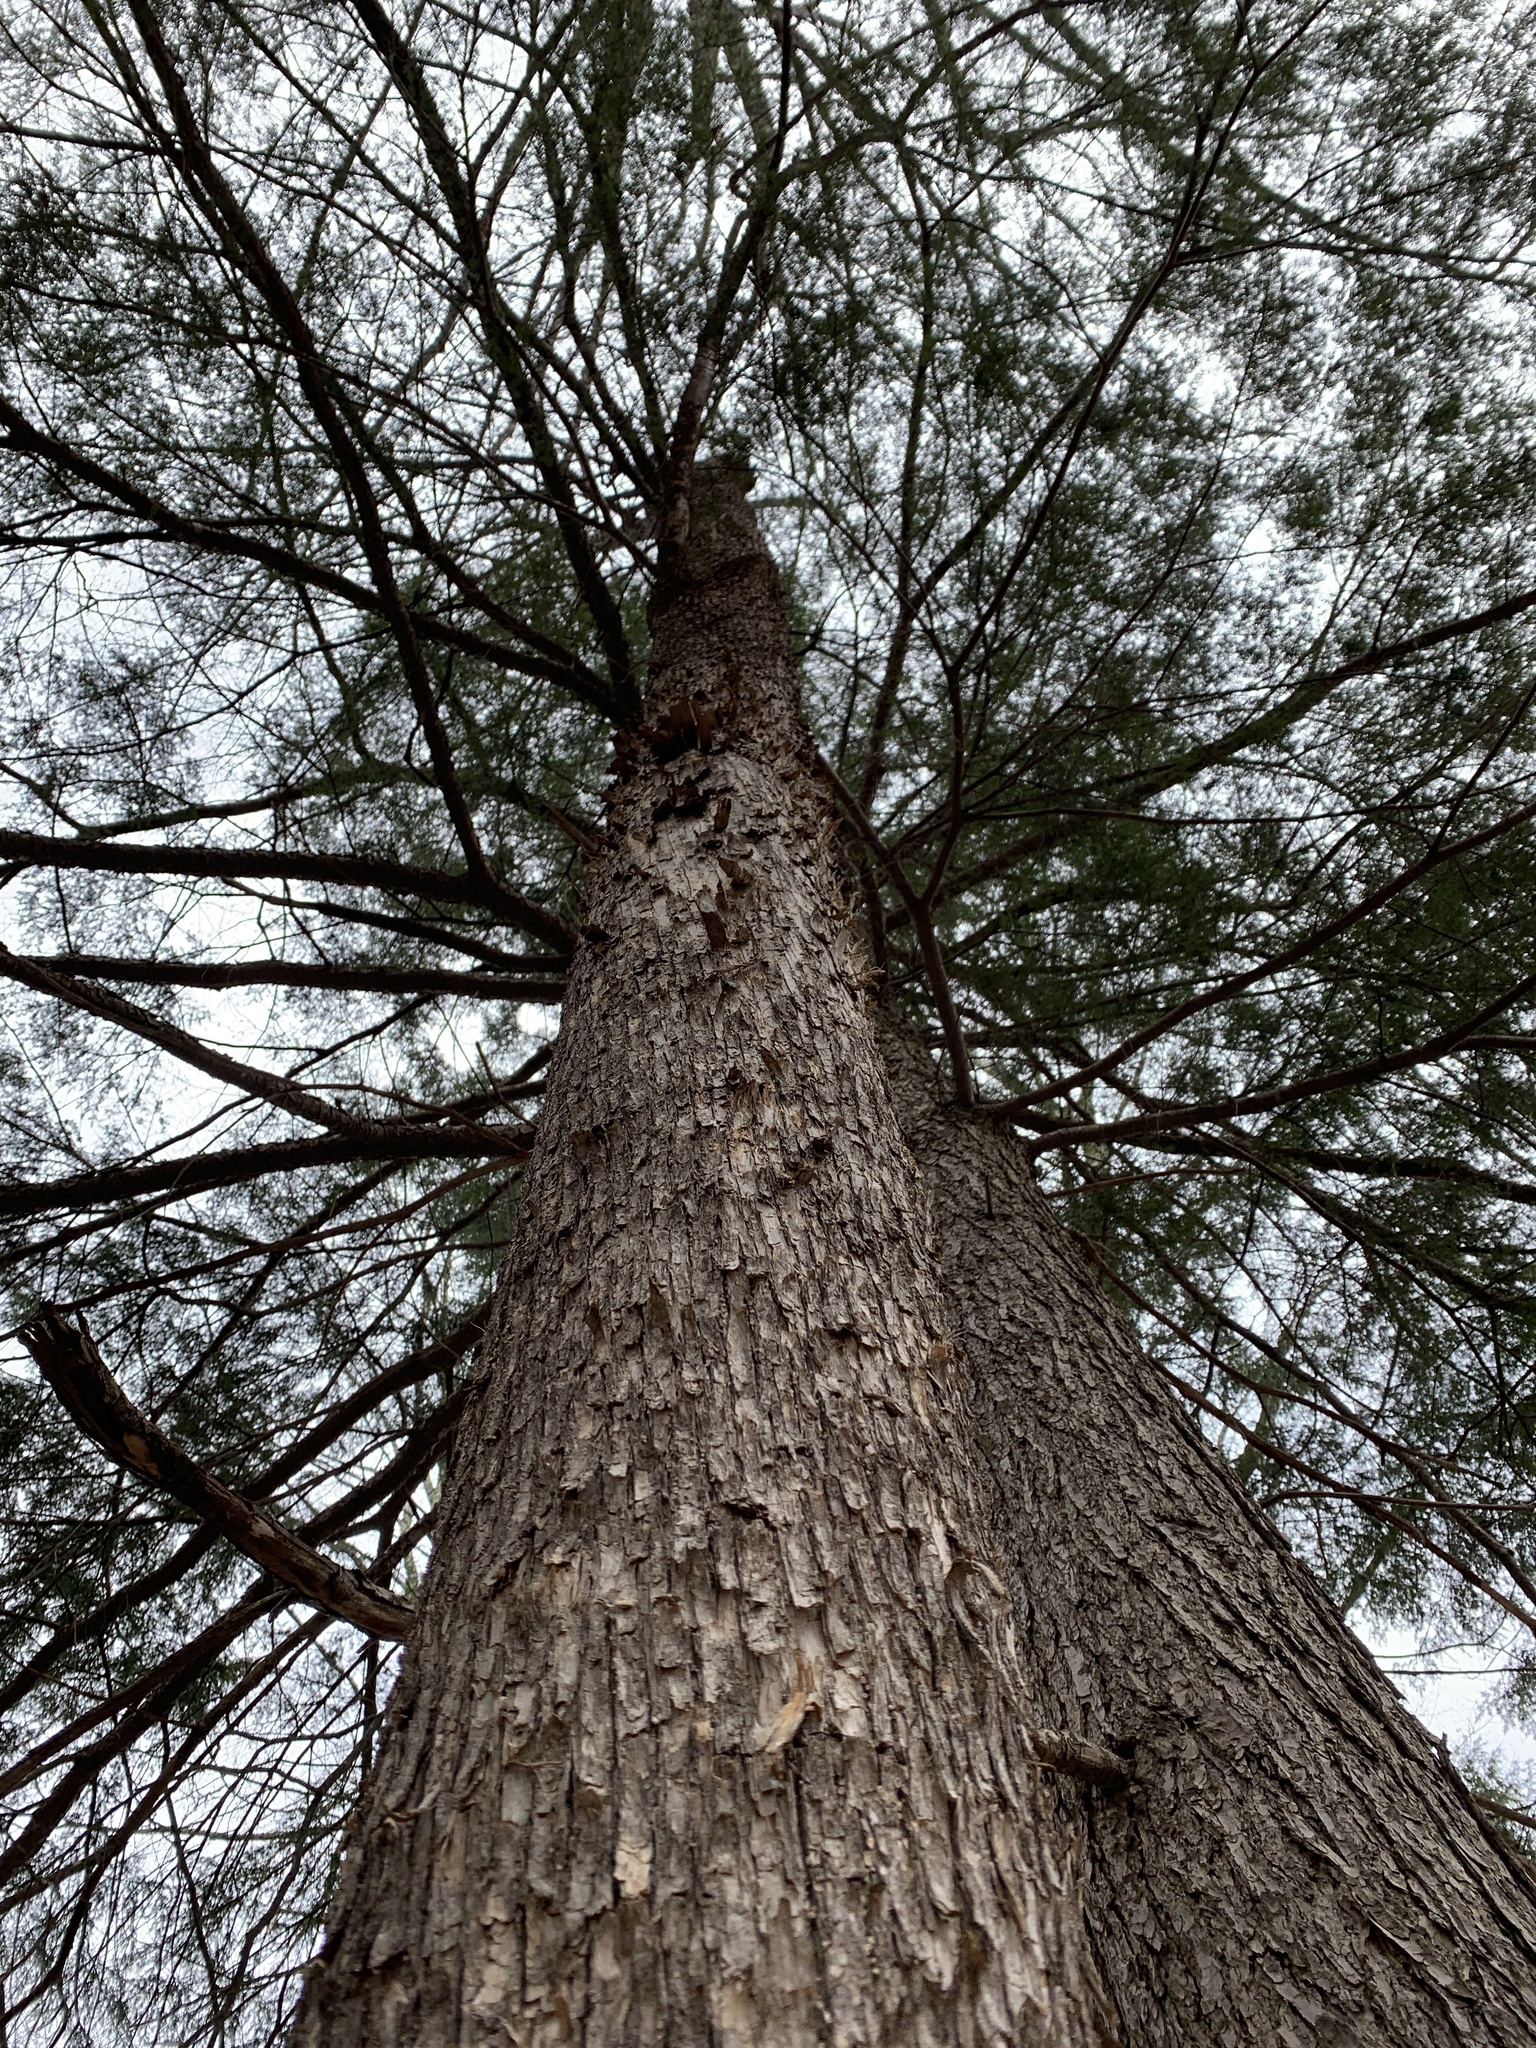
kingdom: Plantae
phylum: Tracheophyta
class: Magnoliopsida
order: Fagales
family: Betulaceae
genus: Ostrya
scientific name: Ostrya virginiana
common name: Ironwood
